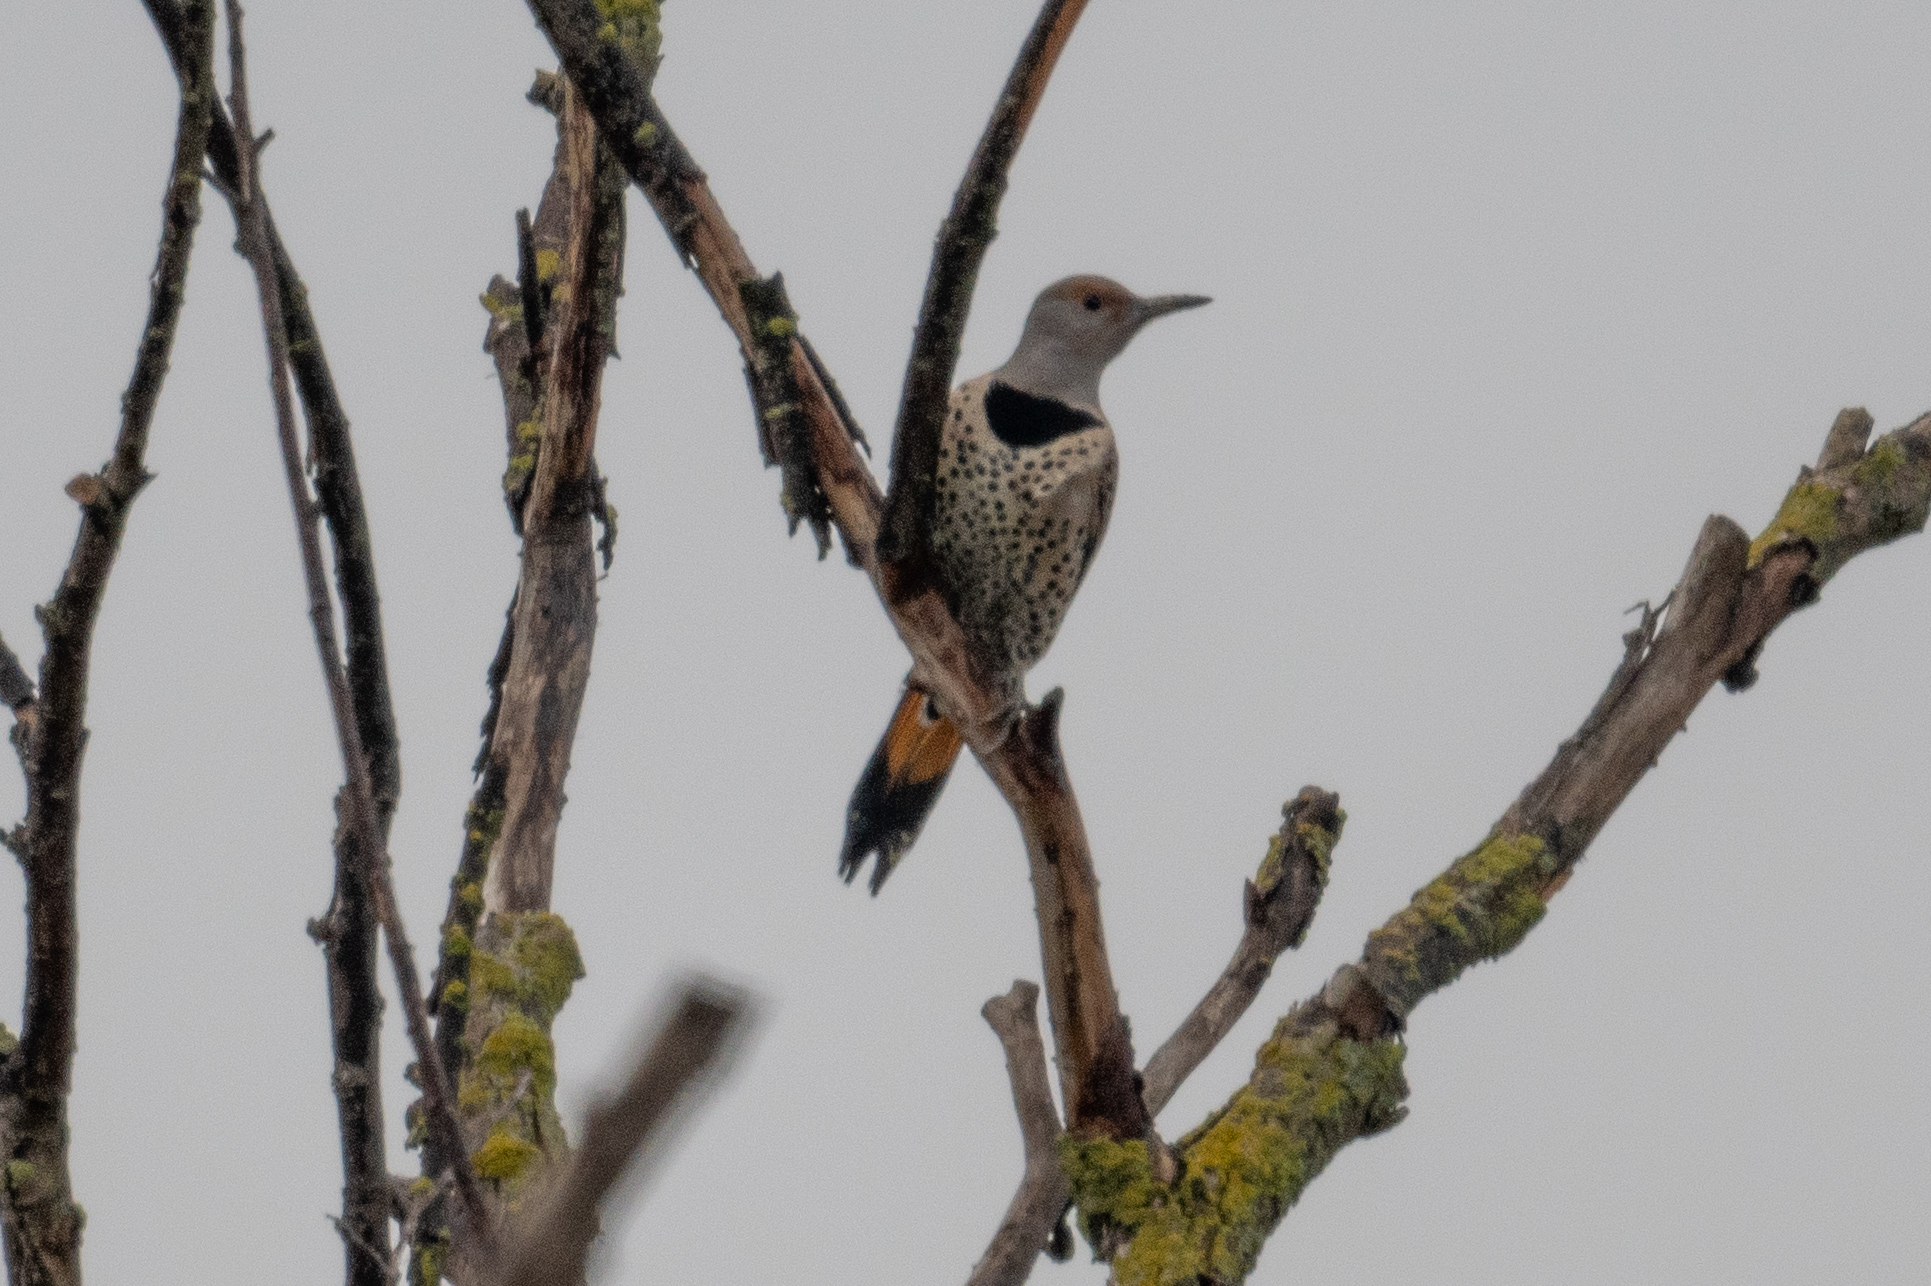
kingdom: Animalia
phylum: Chordata
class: Aves
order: Piciformes
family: Picidae
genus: Colaptes
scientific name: Colaptes auratus
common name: Northern flicker
